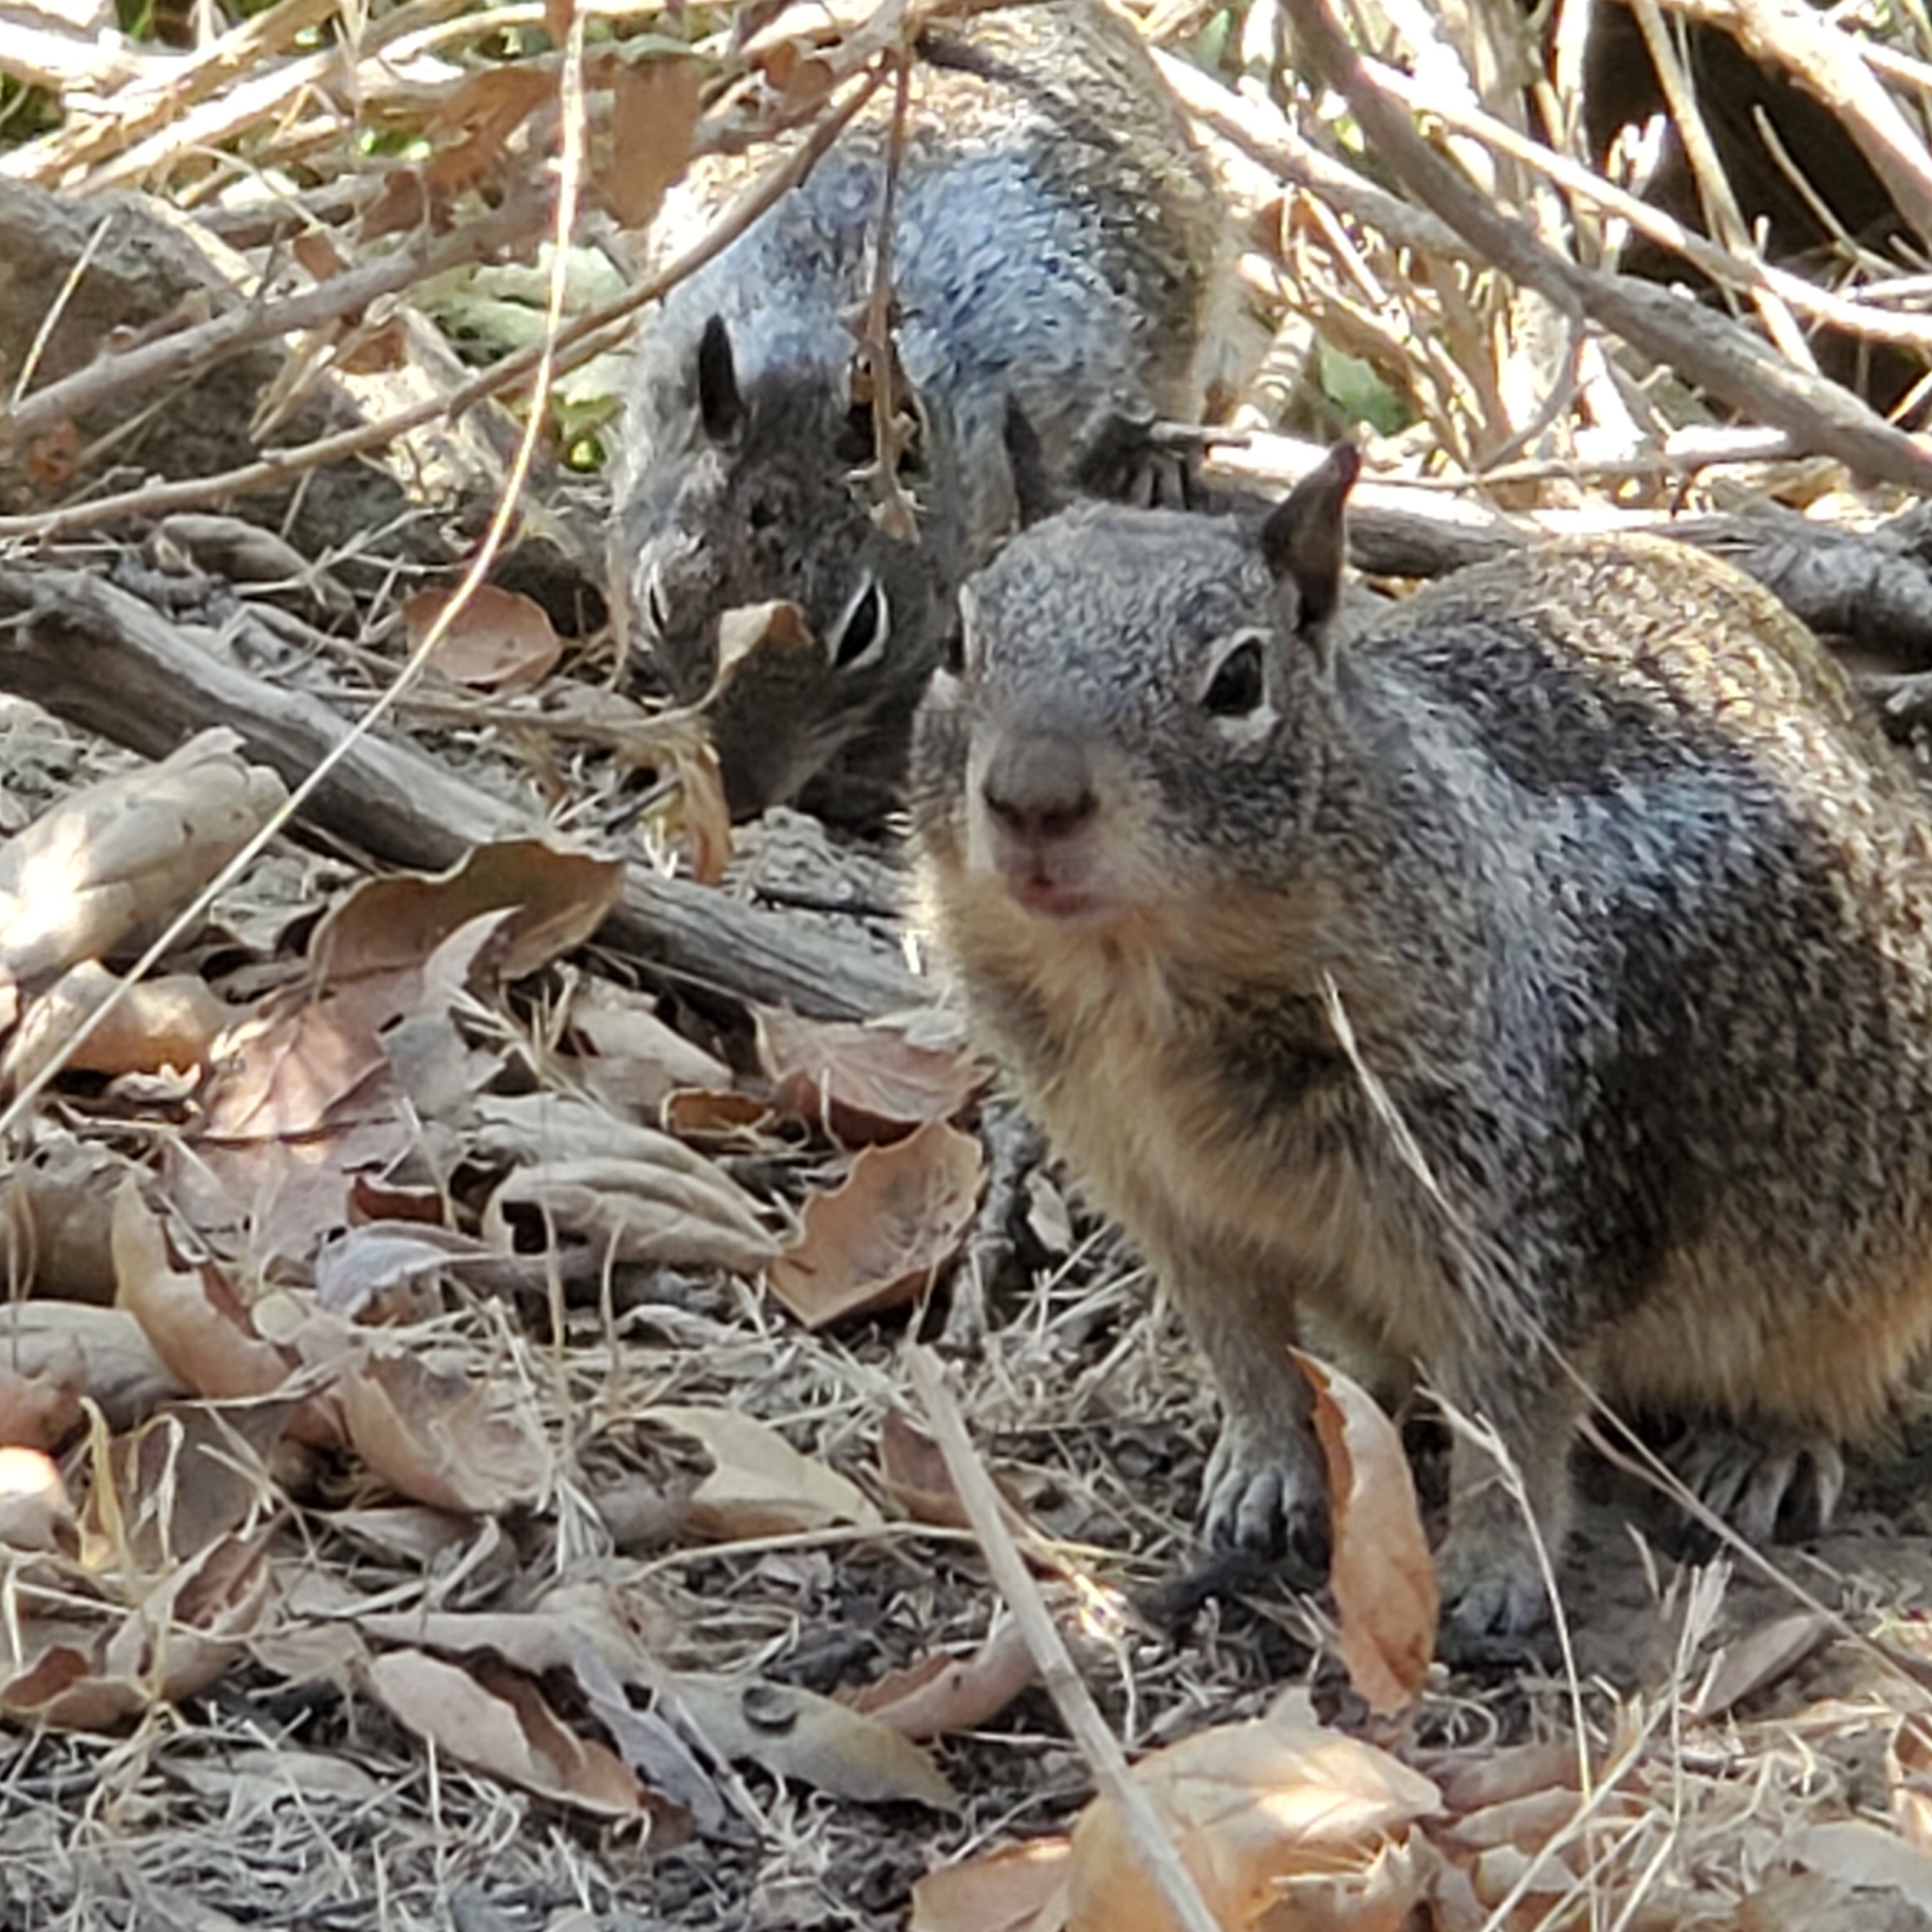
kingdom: Animalia
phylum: Chordata
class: Mammalia
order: Rodentia
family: Sciuridae
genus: Otospermophilus
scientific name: Otospermophilus beecheyi
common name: California ground squirrel
